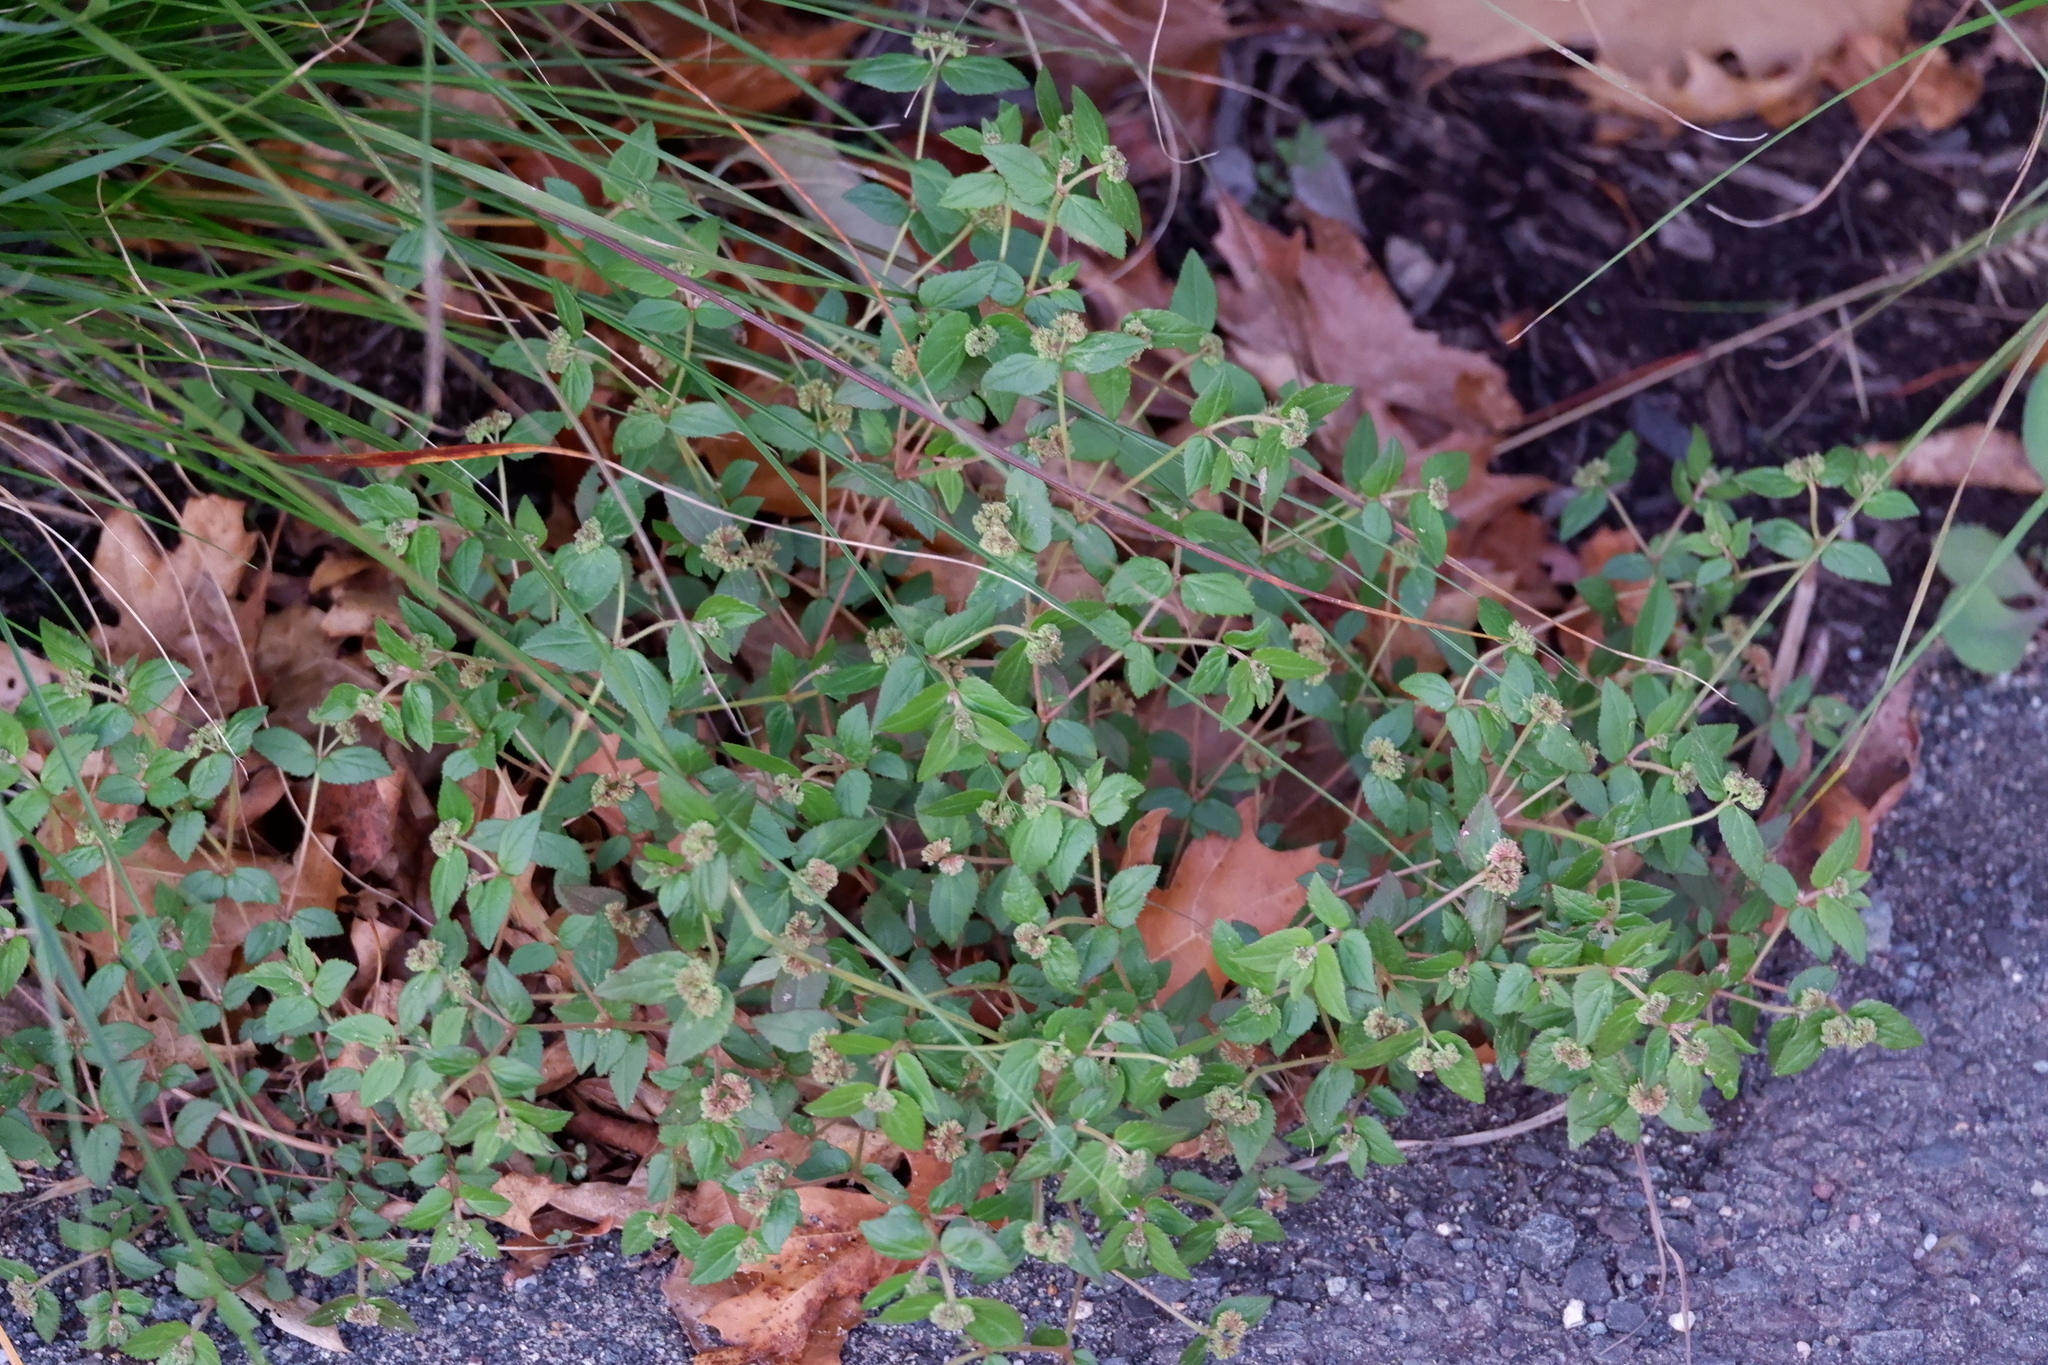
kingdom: Plantae
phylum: Tracheophyta
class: Magnoliopsida
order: Malpighiales
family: Euphorbiaceae
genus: Euphorbia
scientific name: Euphorbia ophthalmica
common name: Florida hammock sandmat
